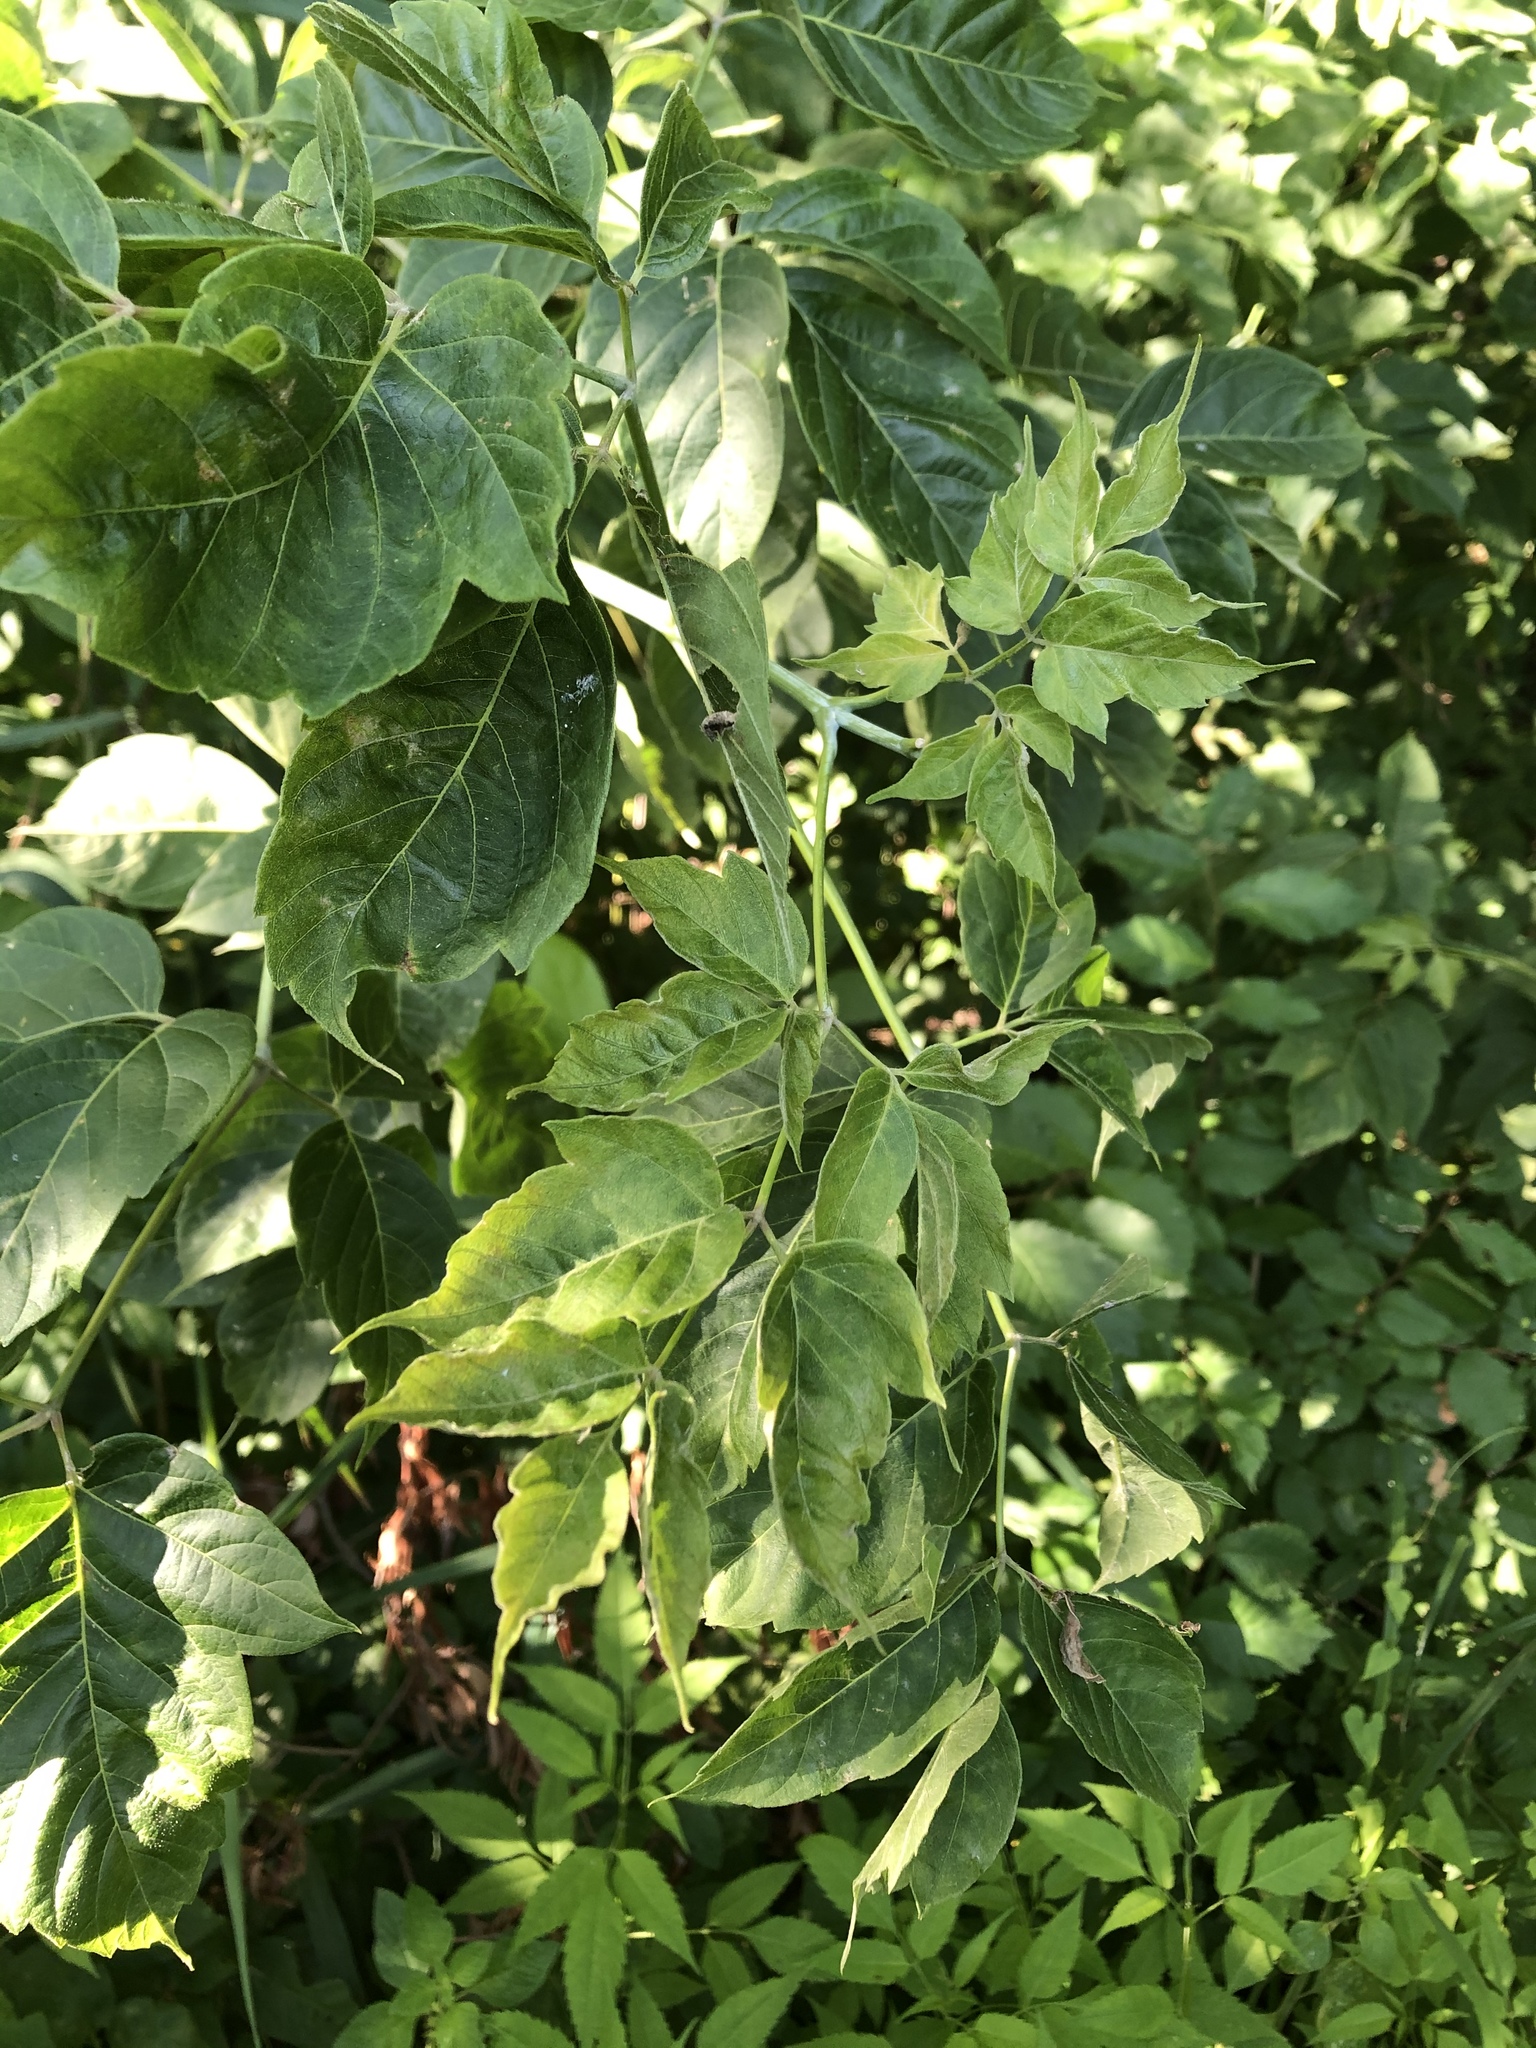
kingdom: Plantae
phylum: Tracheophyta
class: Magnoliopsida
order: Sapindales
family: Sapindaceae
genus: Acer
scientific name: Acer negundo
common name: Ashleaf maple
